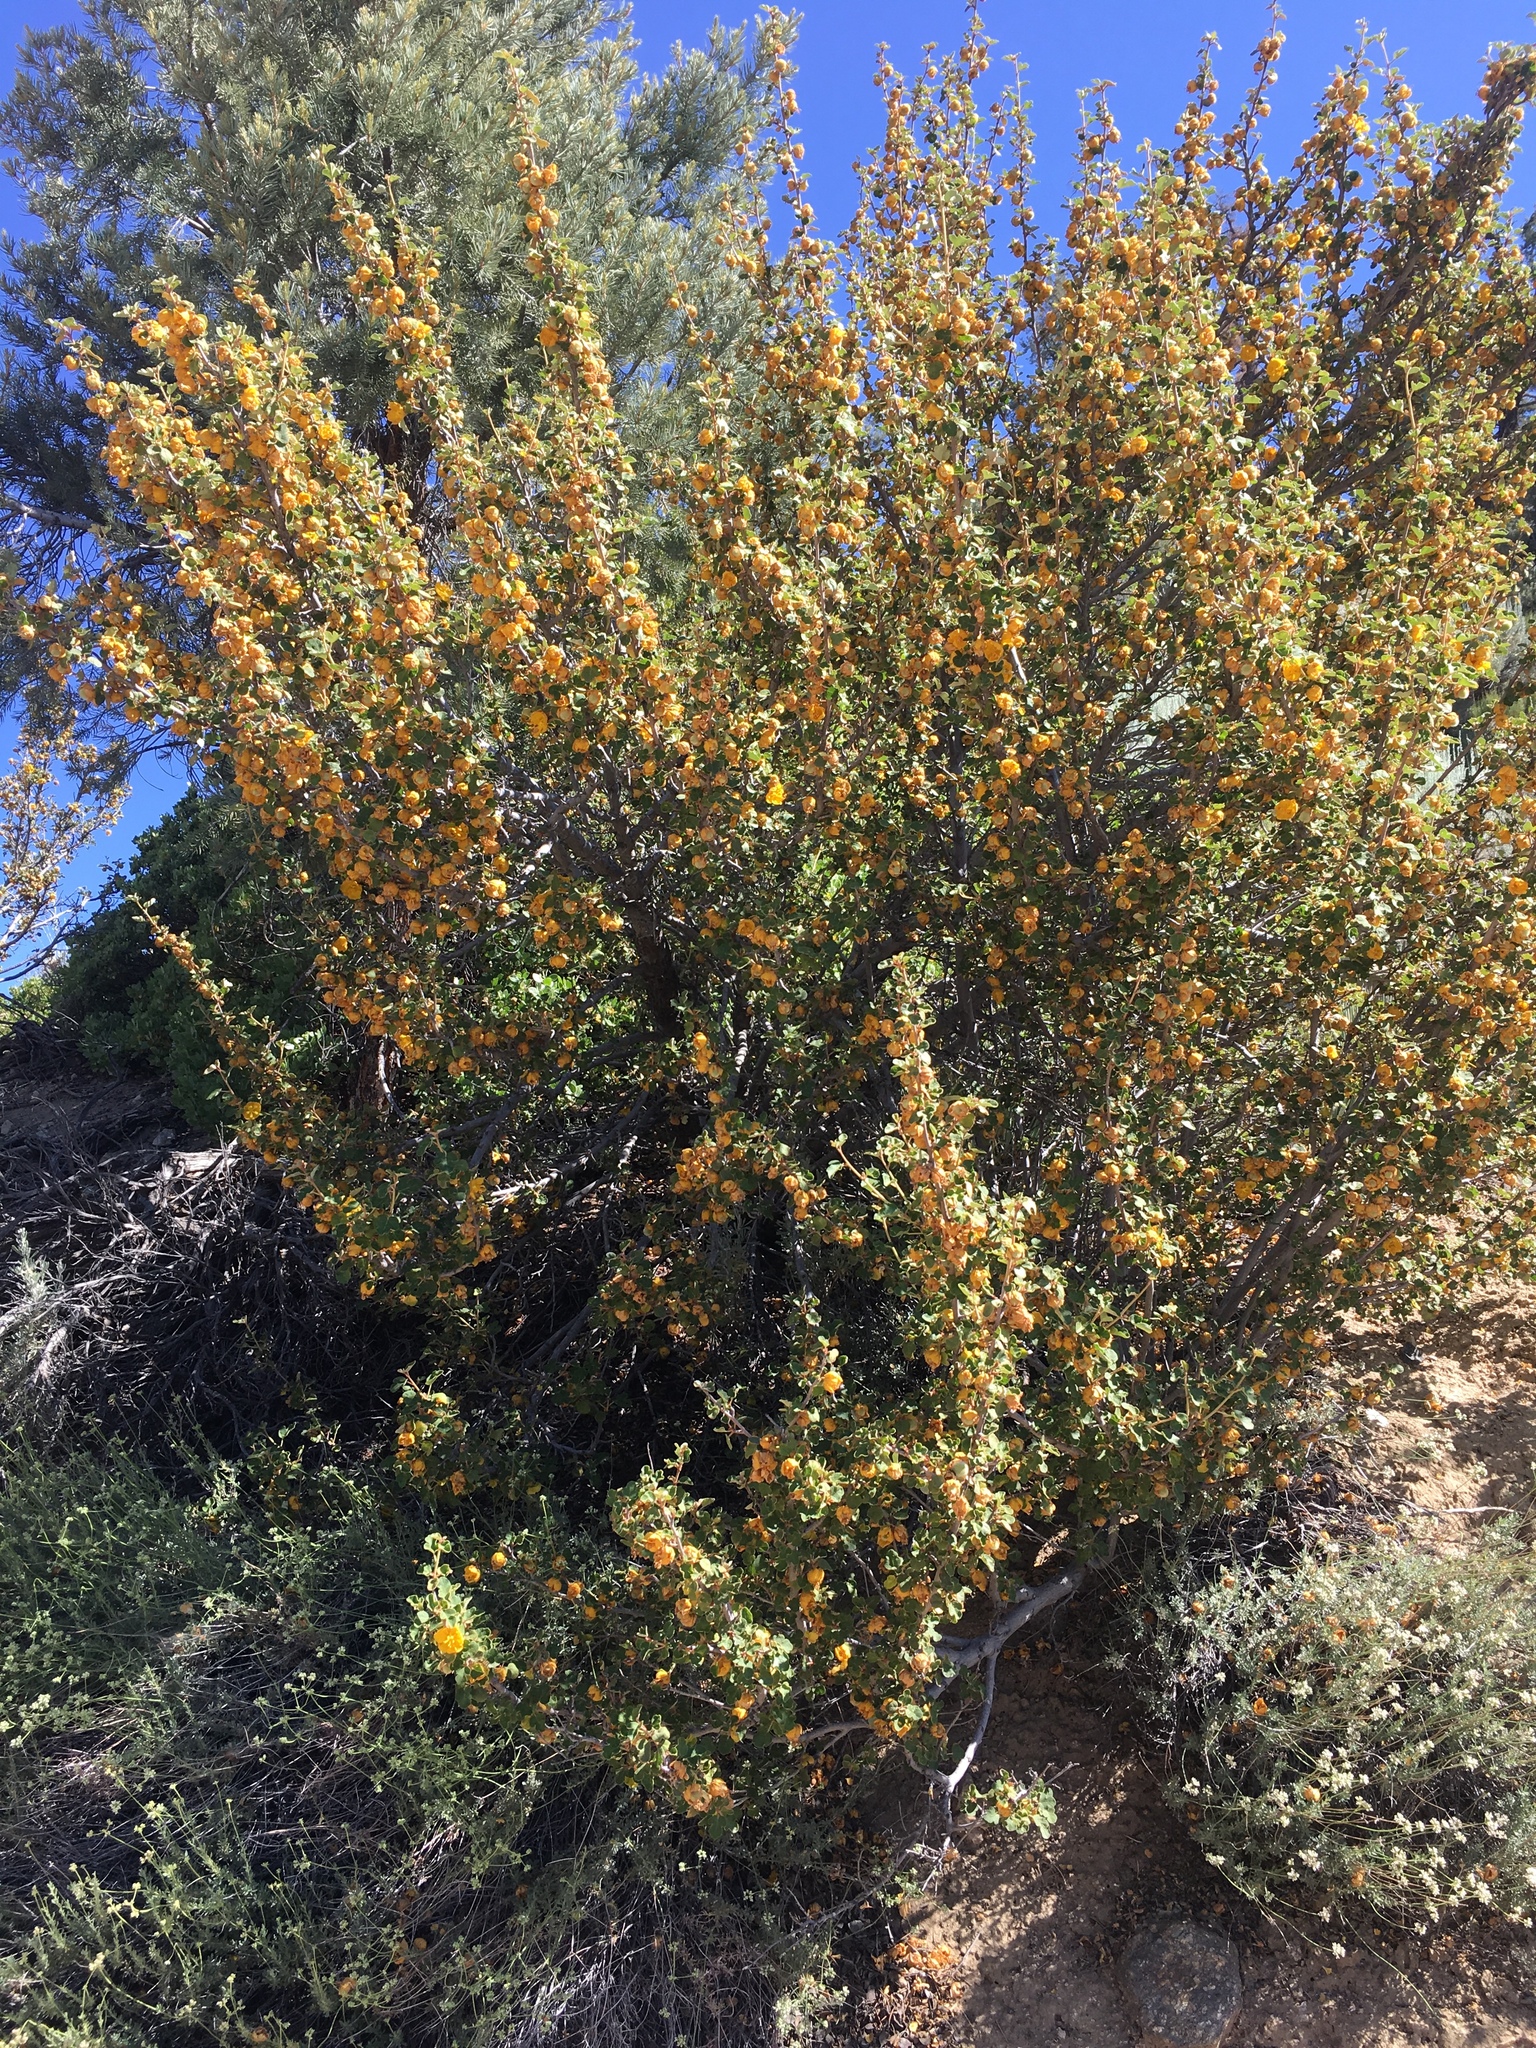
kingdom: Plantae
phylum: Tracheophyta
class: Magnoliopsida
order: Malvales
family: Malvaceae
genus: Fremontodendron
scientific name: Fremontodendron californicum
